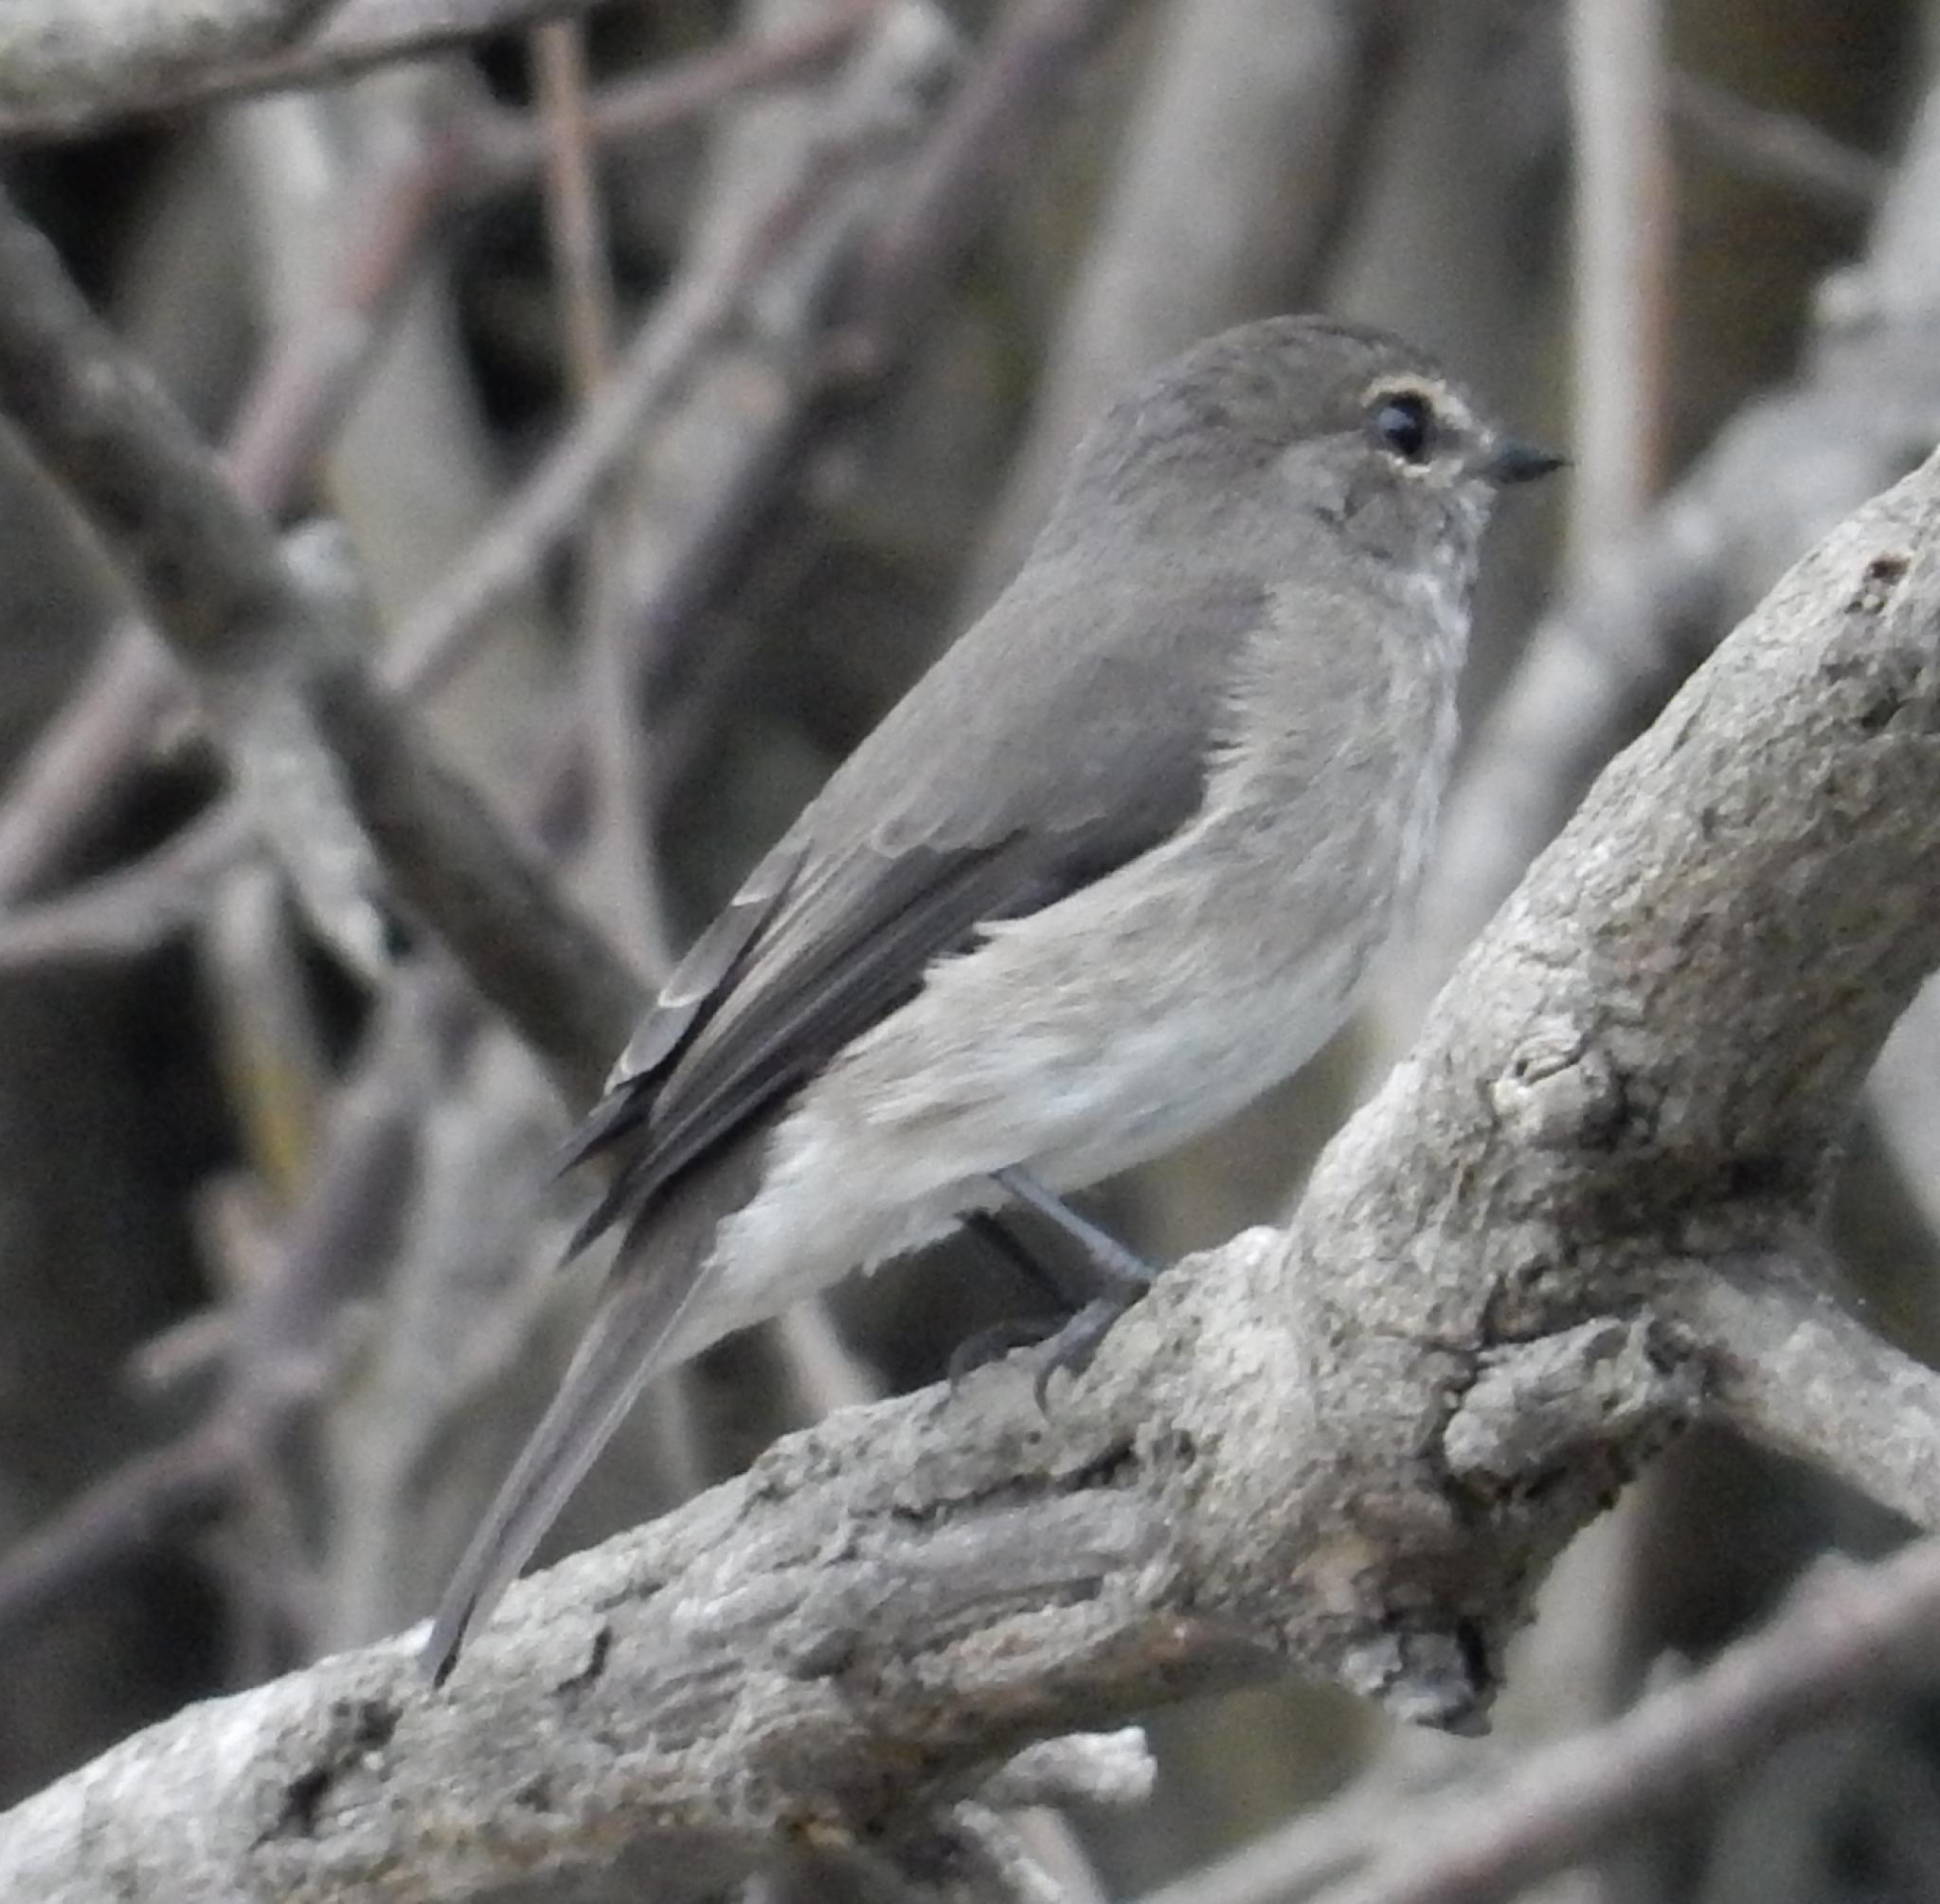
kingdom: Animalia
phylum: Chordata
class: Aves
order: Passeriformes
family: Muscicapidae
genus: Muscicapa
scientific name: Muscicapa adusta
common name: African dusky flycatcher
